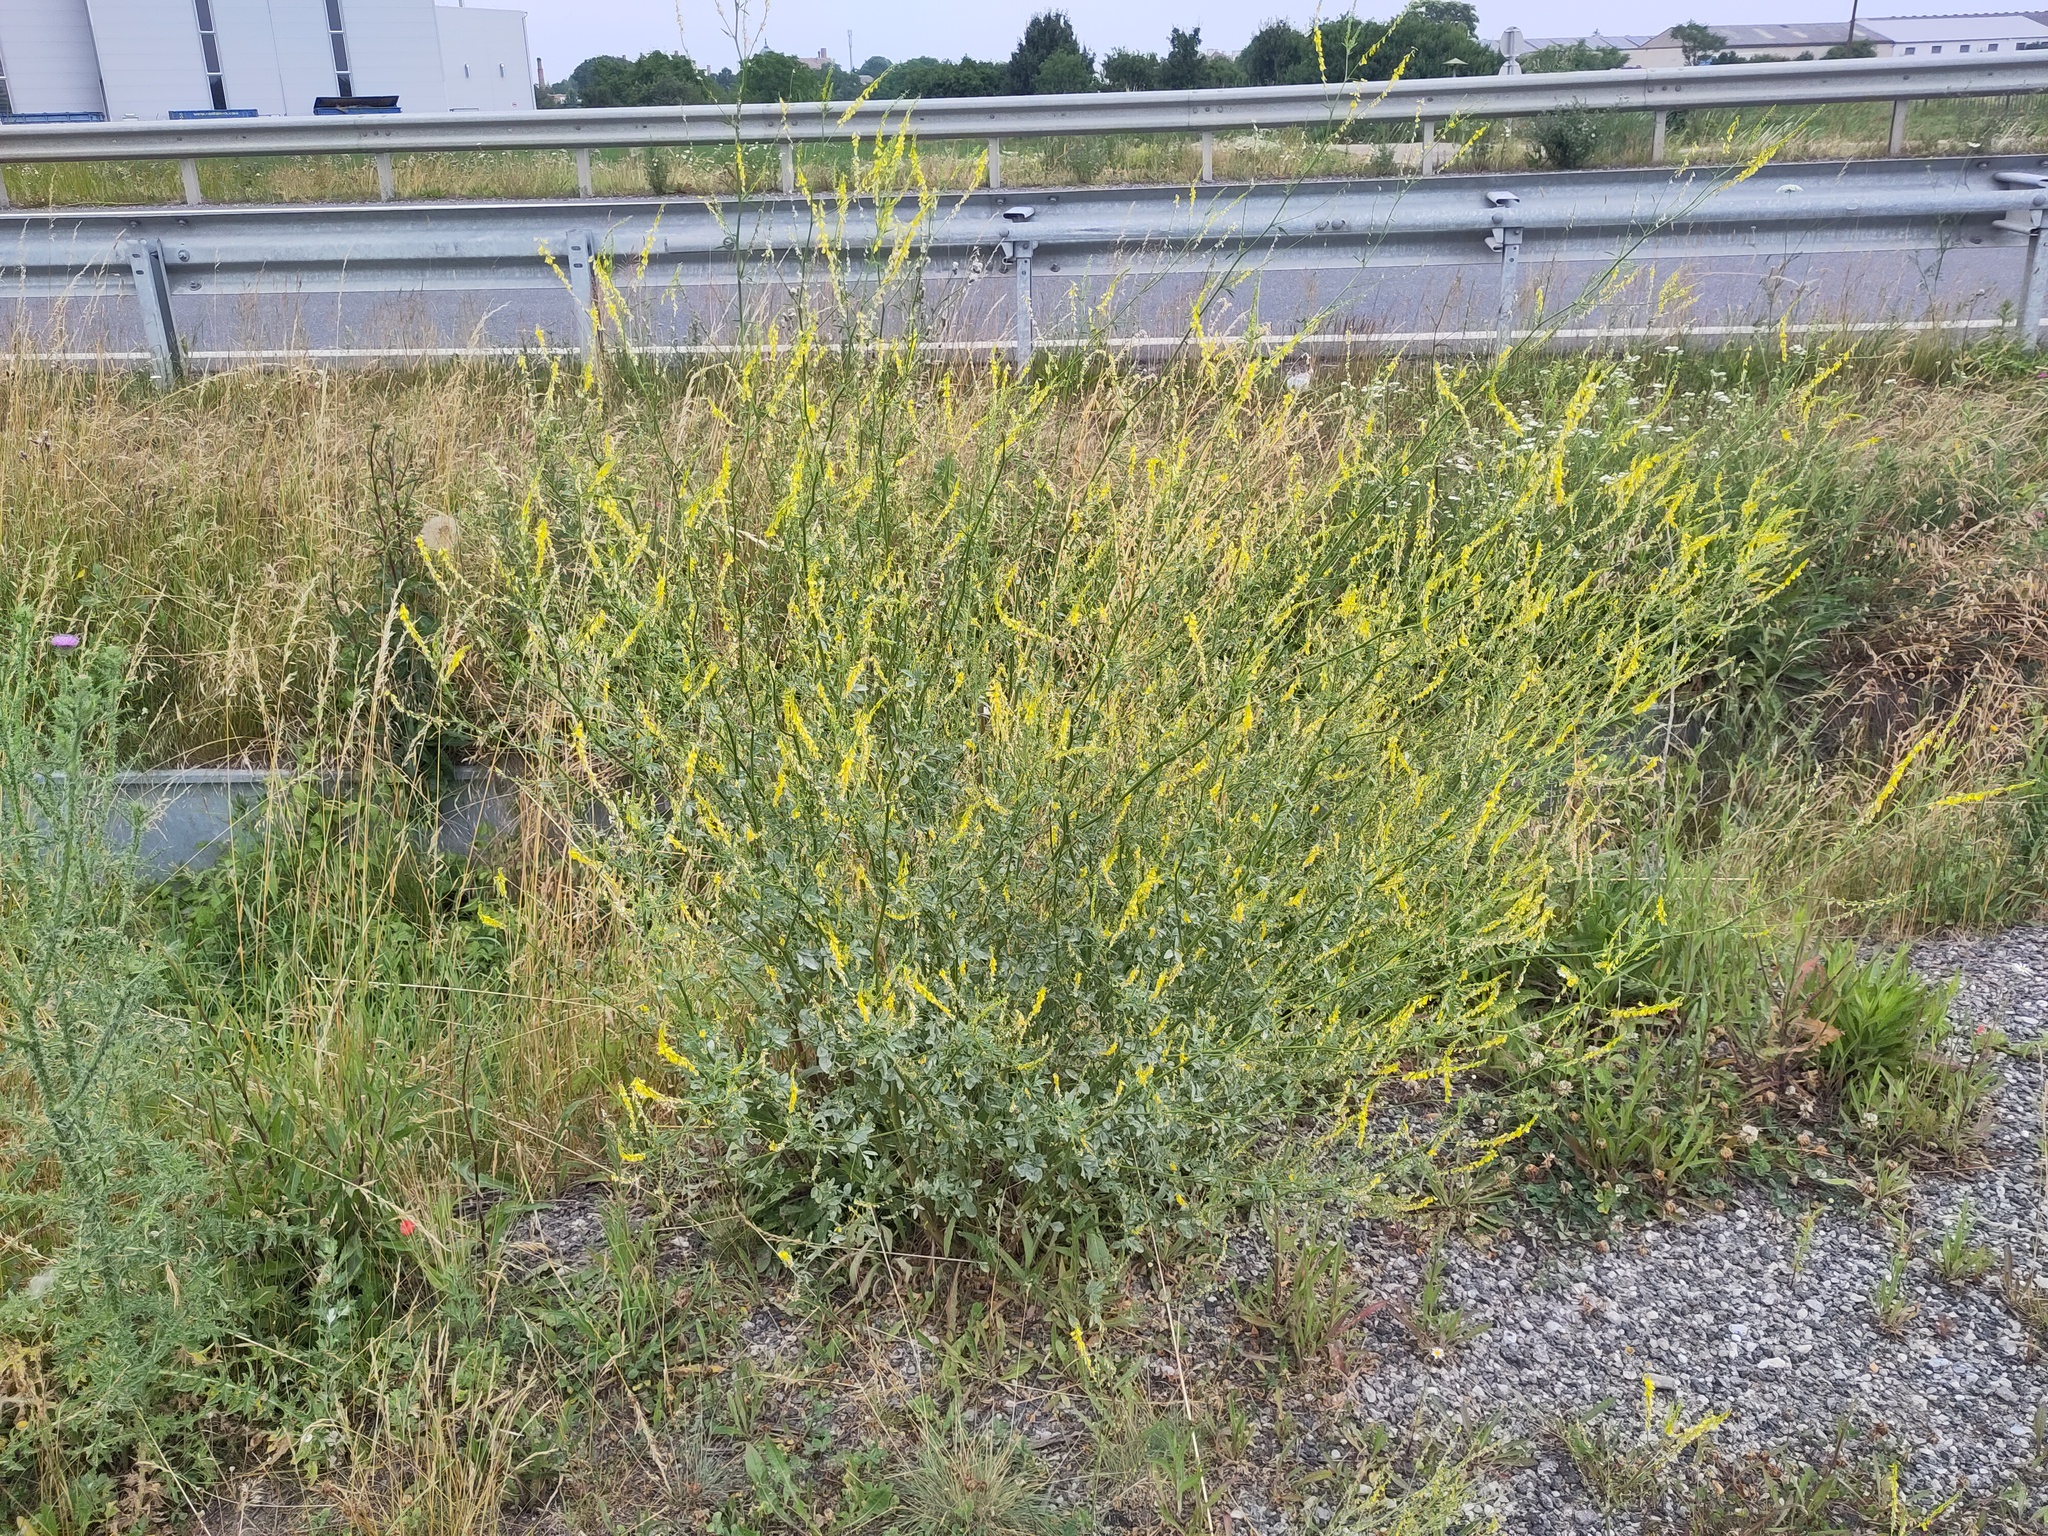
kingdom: Plantae
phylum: Tracheophyta
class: Magnoliopsida
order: Fabales
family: Fabaceae
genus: Melilotus
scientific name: Melilotus officinalis
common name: Sweetclover
